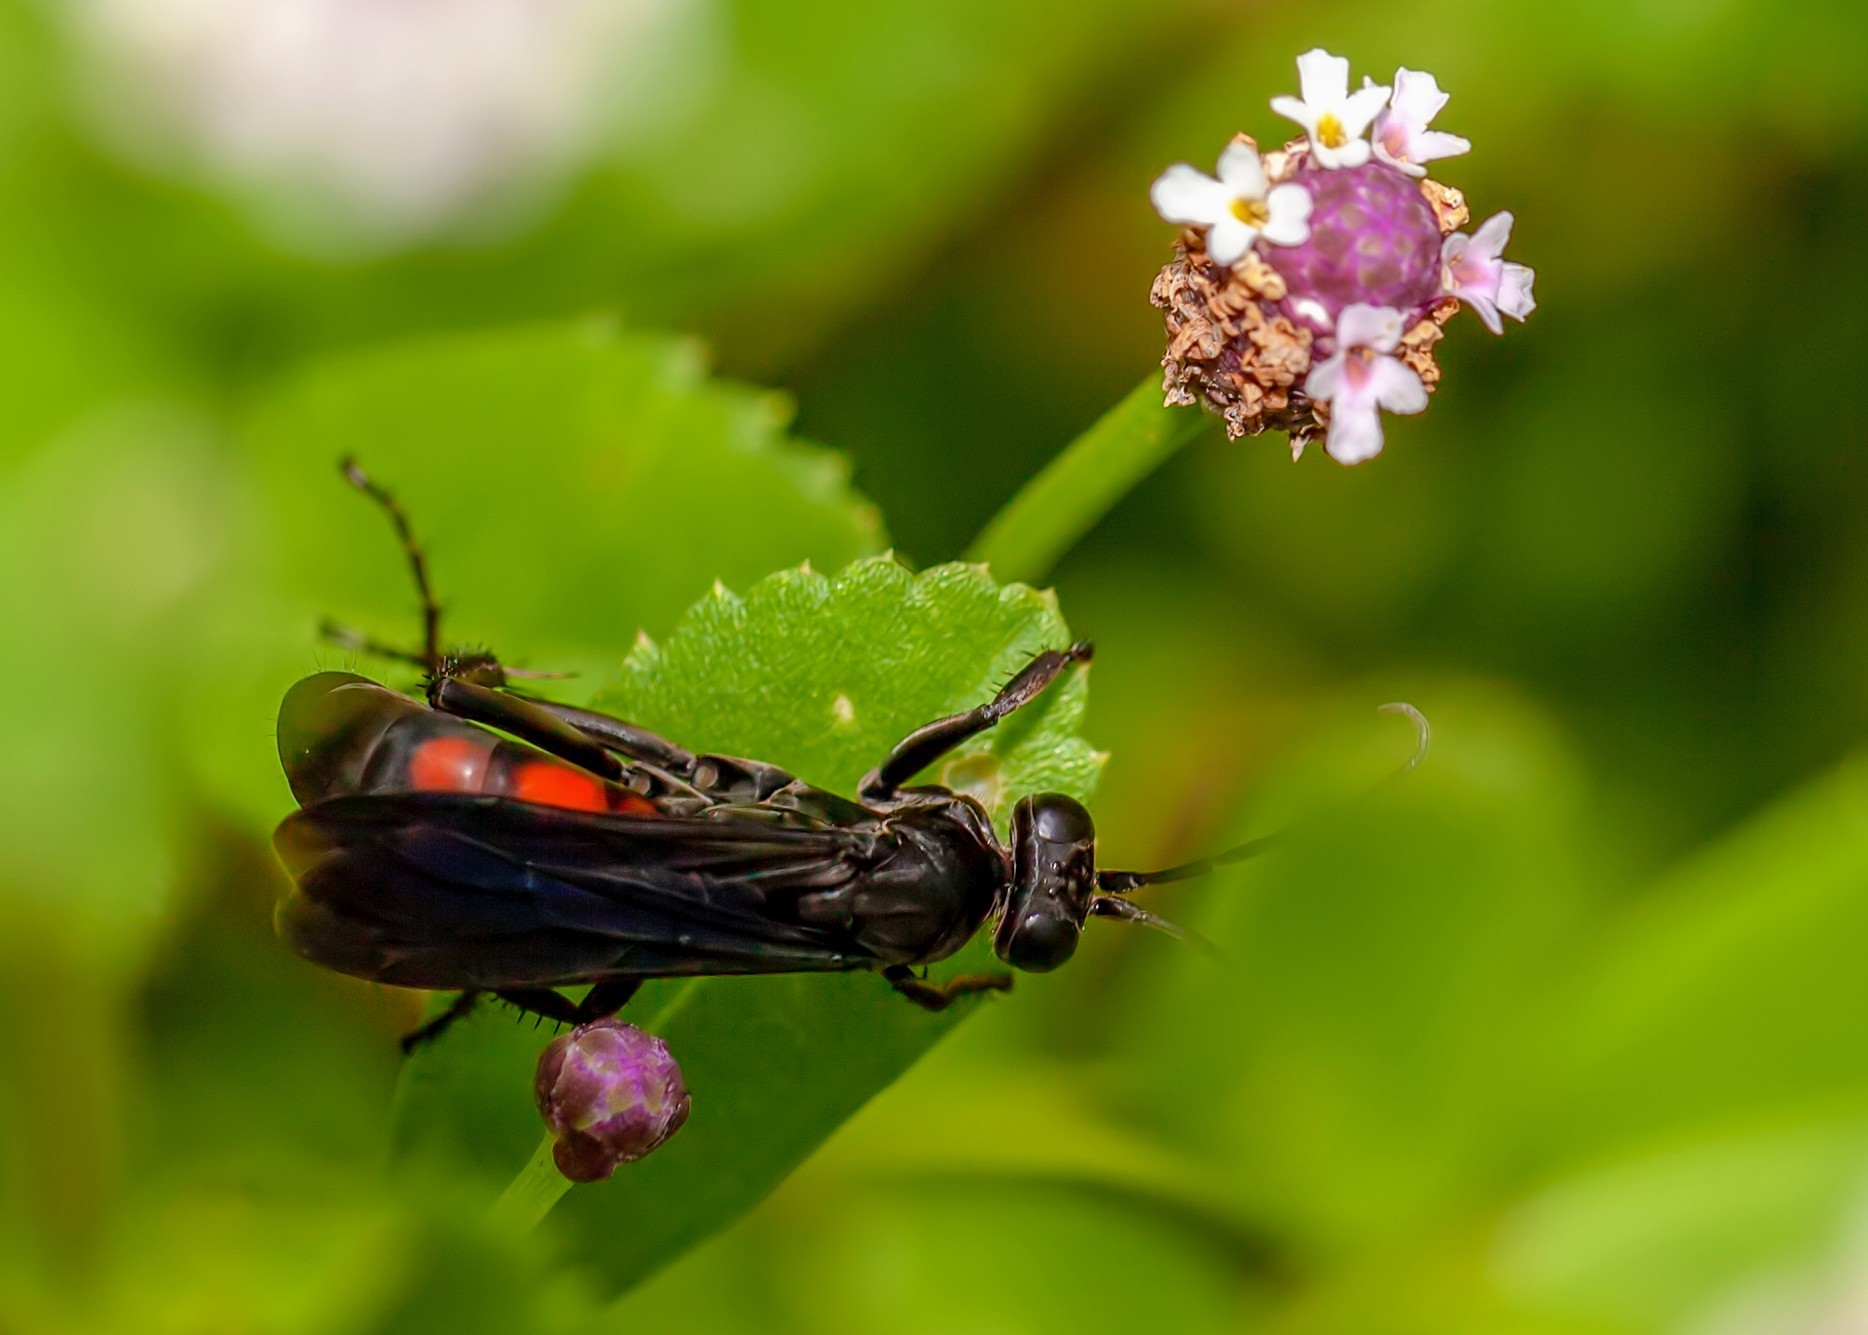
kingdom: Animalia
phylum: Arthropoda
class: Insecta
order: Hymenoptera
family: Pompilidae
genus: Anoplius
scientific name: Anoplius americanus
